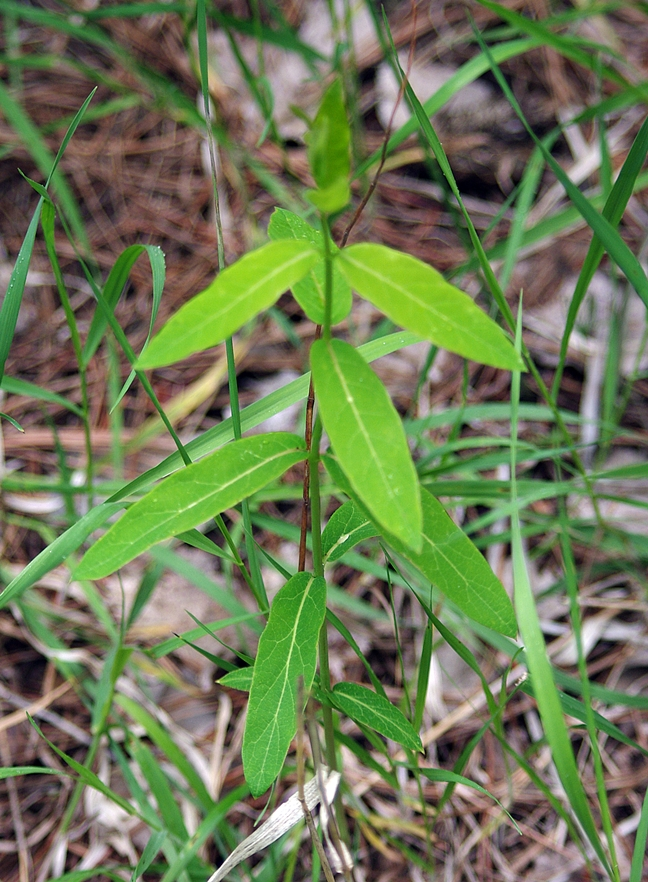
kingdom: Plantae
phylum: Tracheophyta
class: Magnoliopsida
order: Gentianales
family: Apocynaceae
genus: Apocynum
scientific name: Apocynum cannabinum
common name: Hemp dogbane
